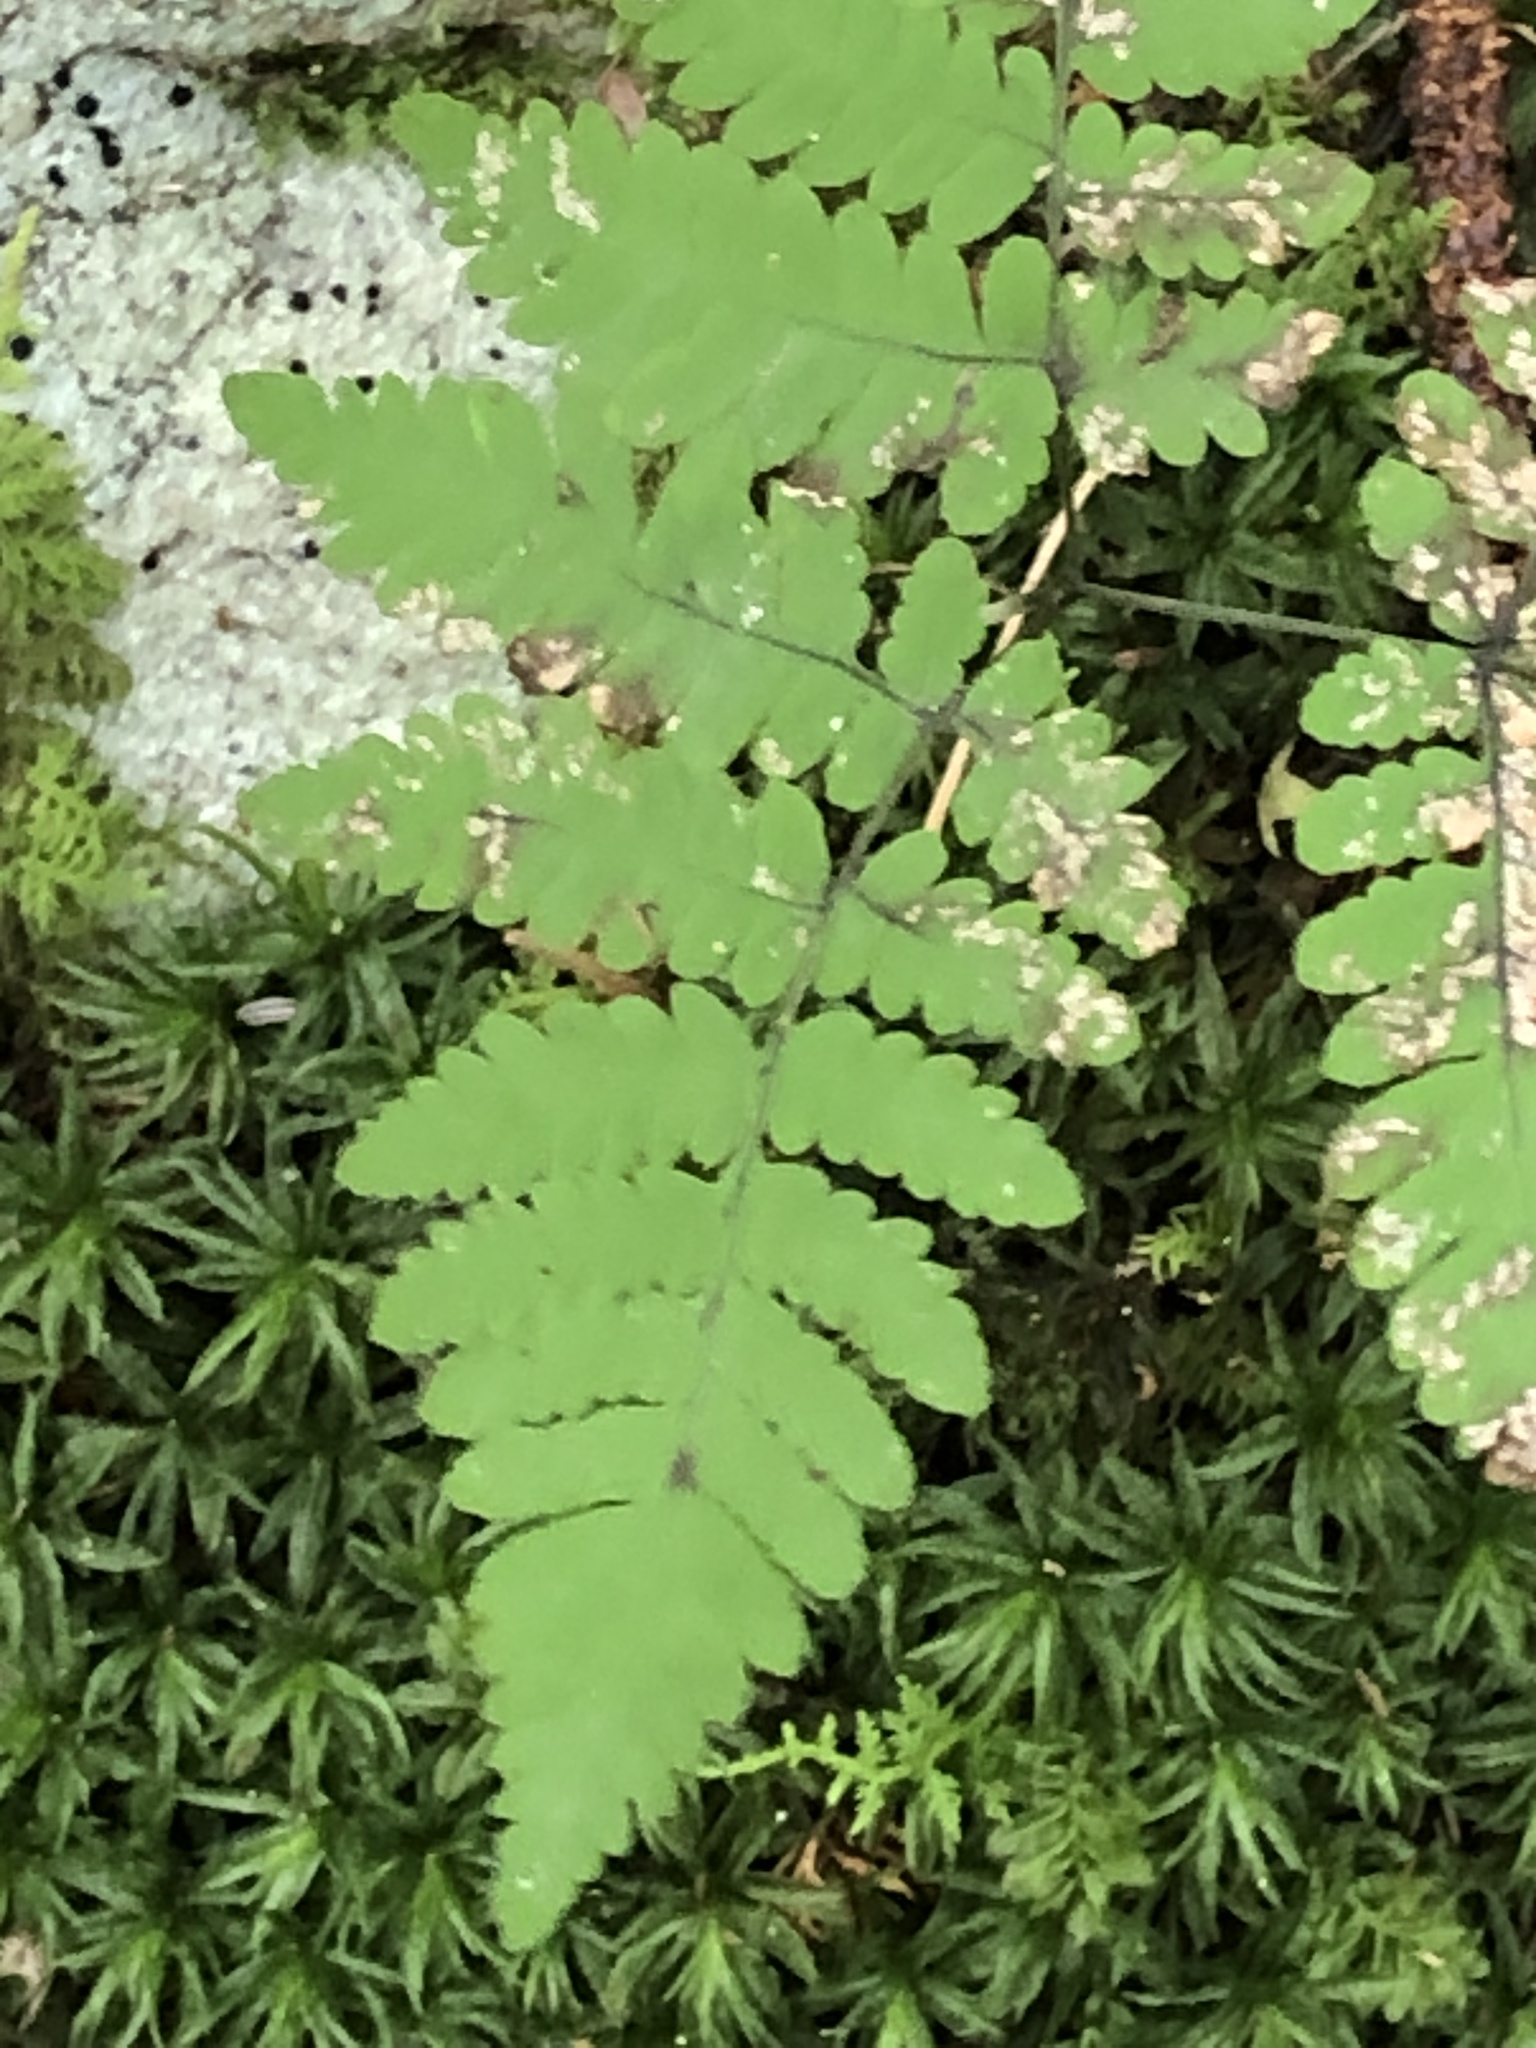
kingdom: Plantae
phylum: Tracheophyta
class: Polypodiopsida
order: Polypodiales
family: Cystopteridaceae
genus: Gymnocarpium
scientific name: Gymnocarpium dryopteris
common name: Oak fern
